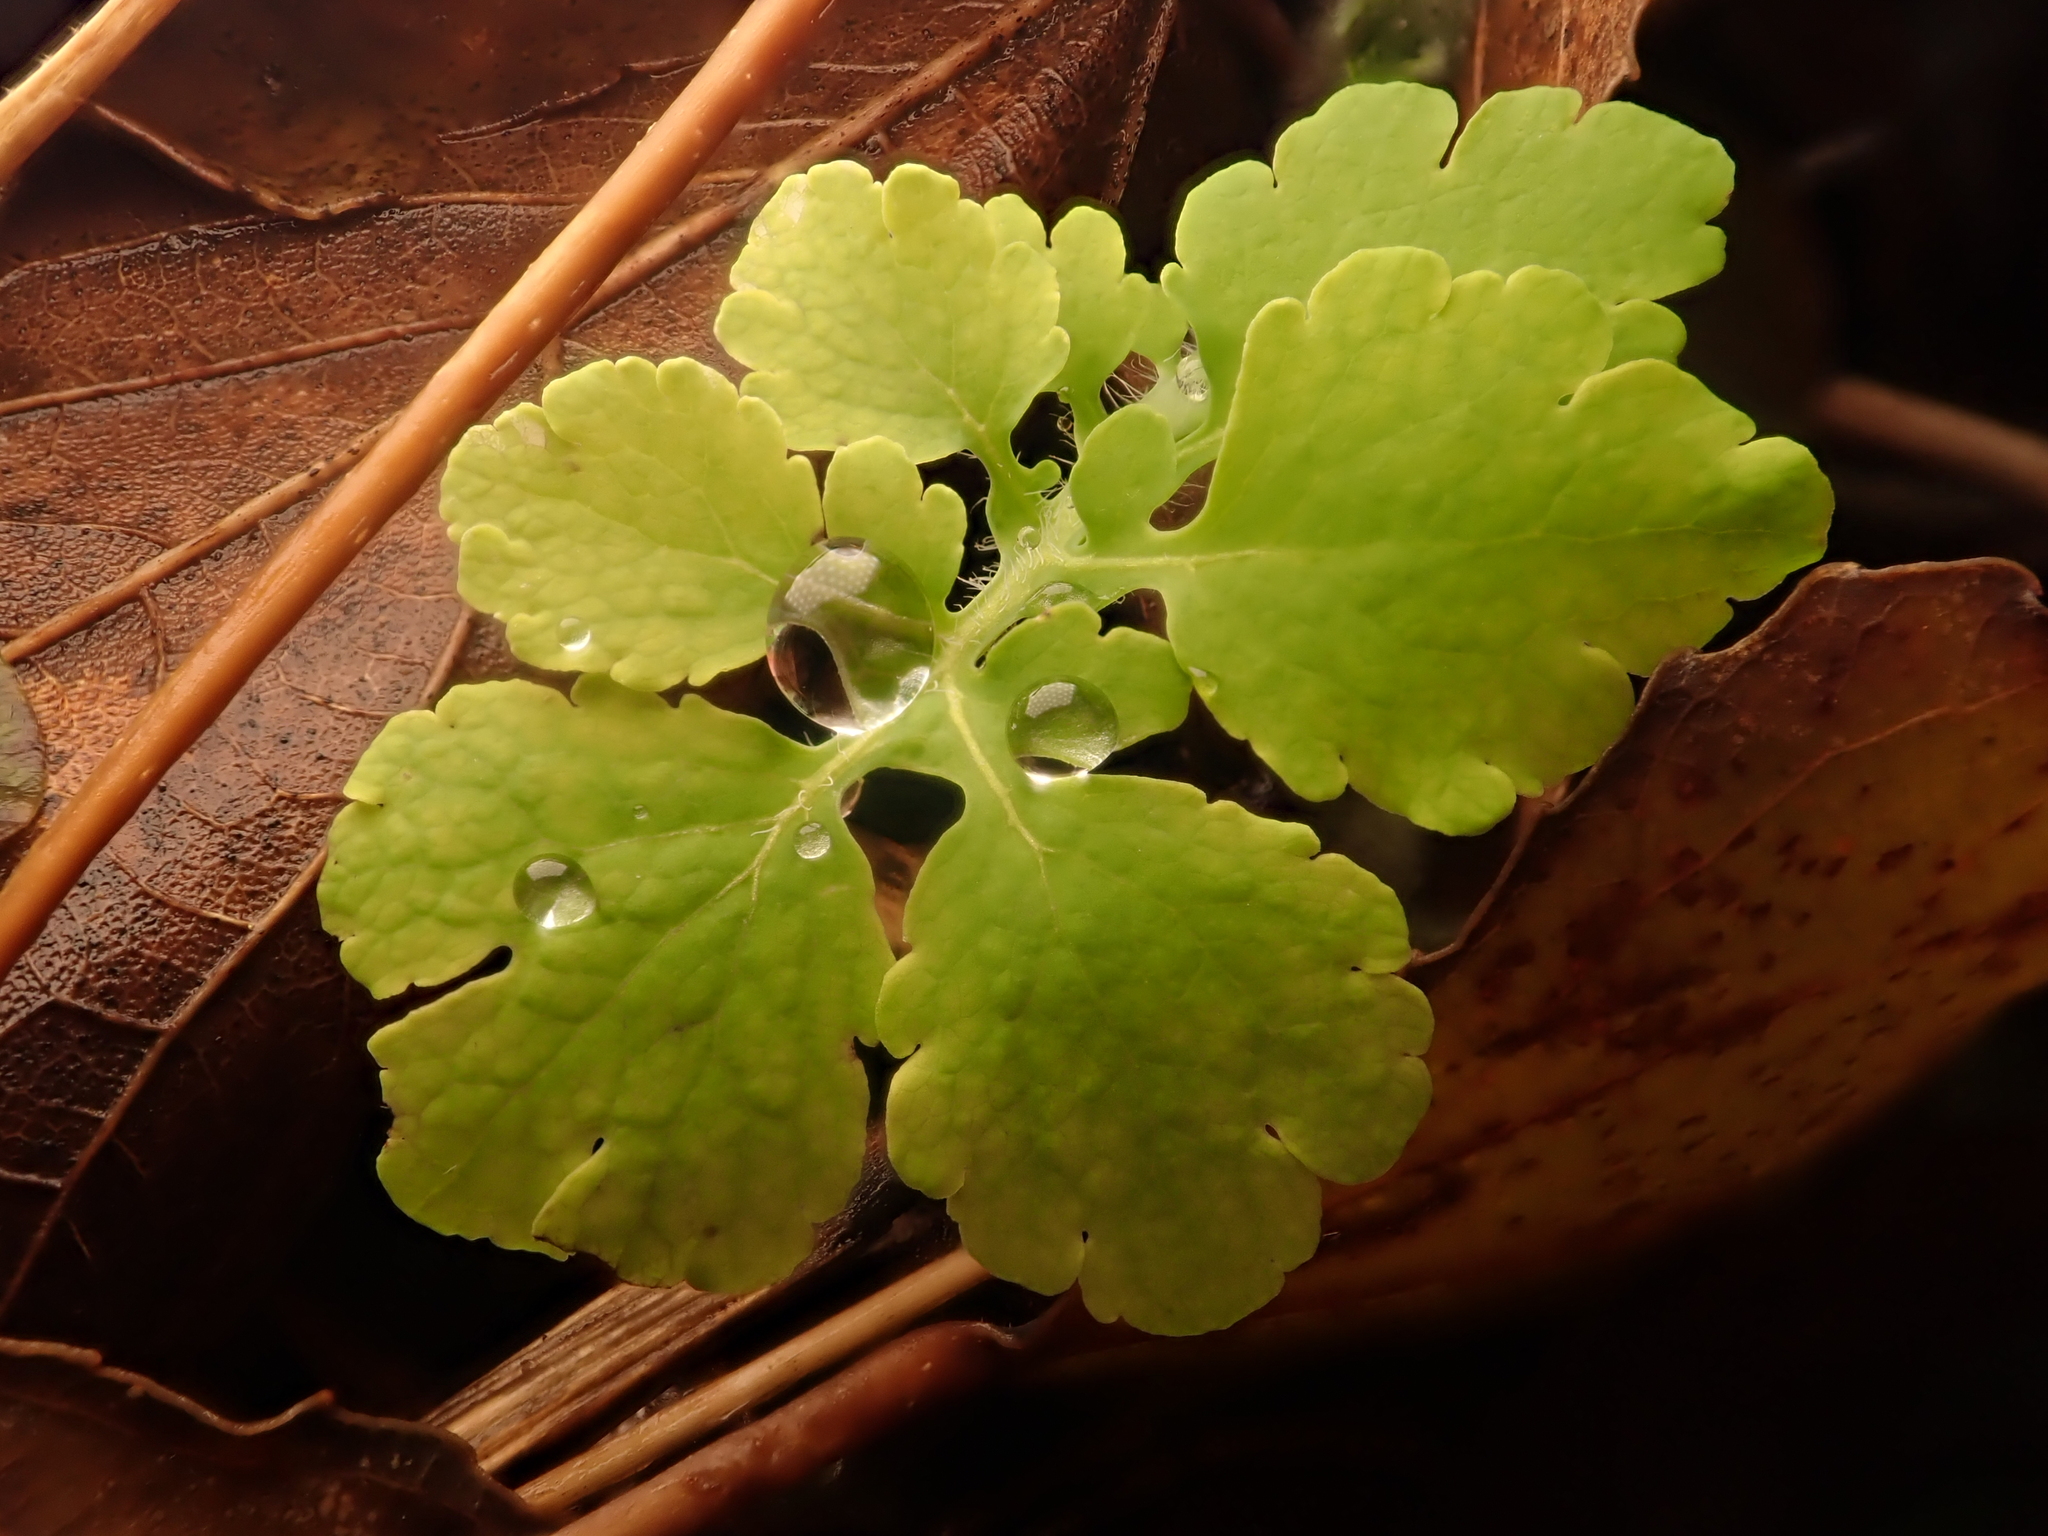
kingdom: Plantae
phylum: Tracheophyta
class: Magnoliopsida
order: Ranunculales
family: Papaveraceae
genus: Chelidonium
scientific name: Chelidonium majus
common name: Greater celandine
